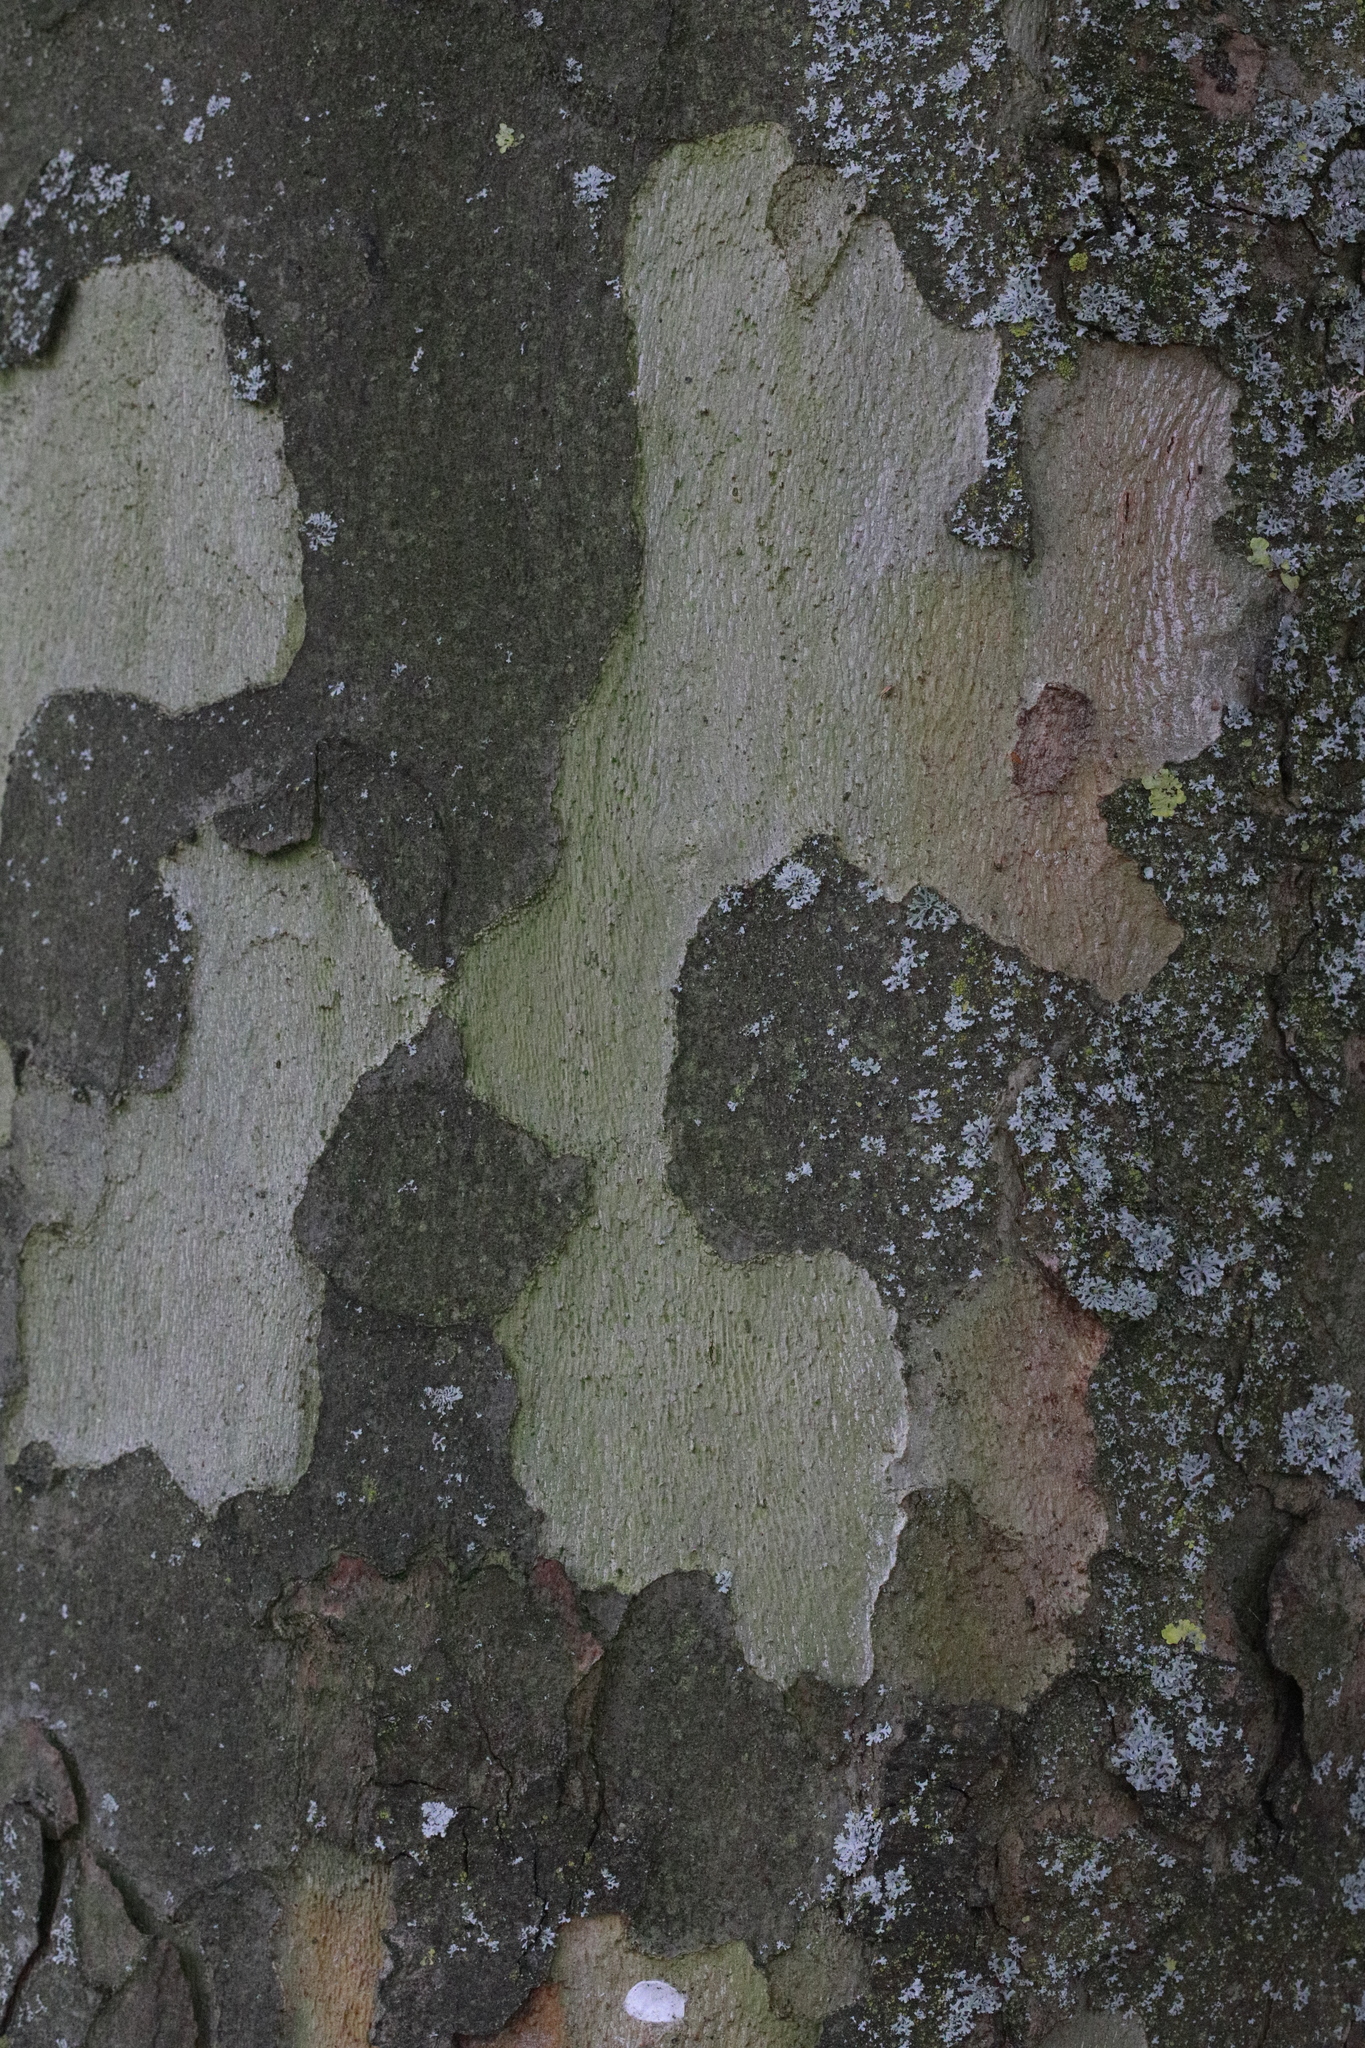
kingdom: Plantae
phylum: Tracheophyta
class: Magnoliopsida
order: Proteales
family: Platanaceae
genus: Platanus
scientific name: Platanus hispanica
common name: London plane
